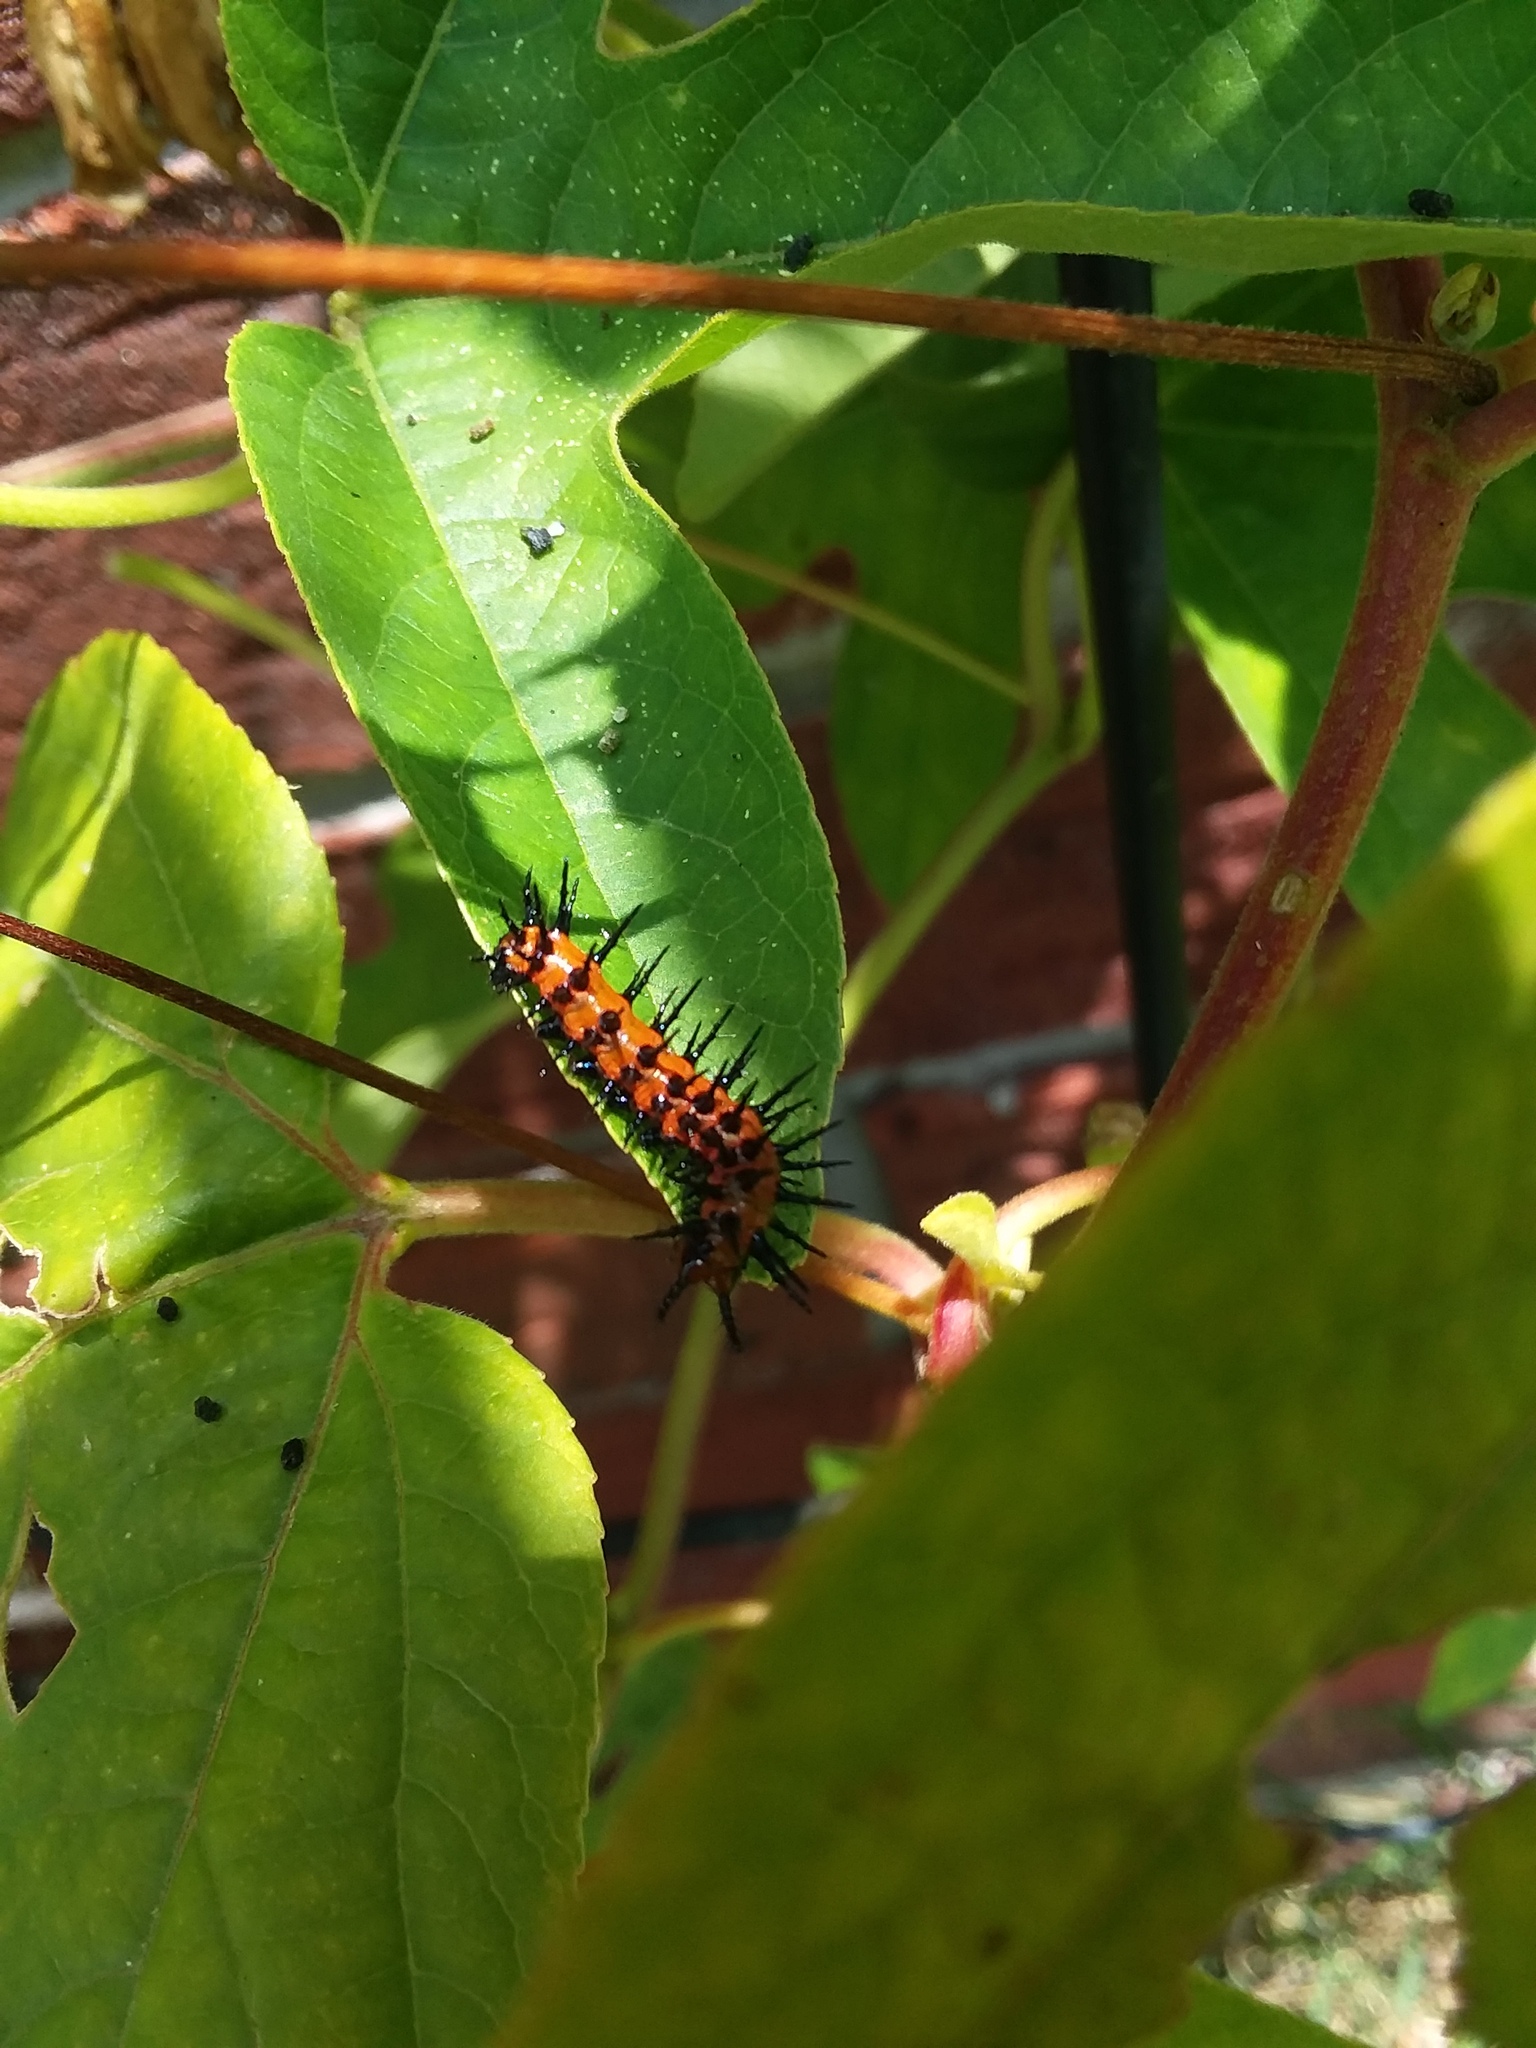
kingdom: Animalia
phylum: Arthropoda
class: Insecta
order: Lepidoptera
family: Nymphalidae
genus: Dione
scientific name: Dione vanillae
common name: Gulf fritillary
